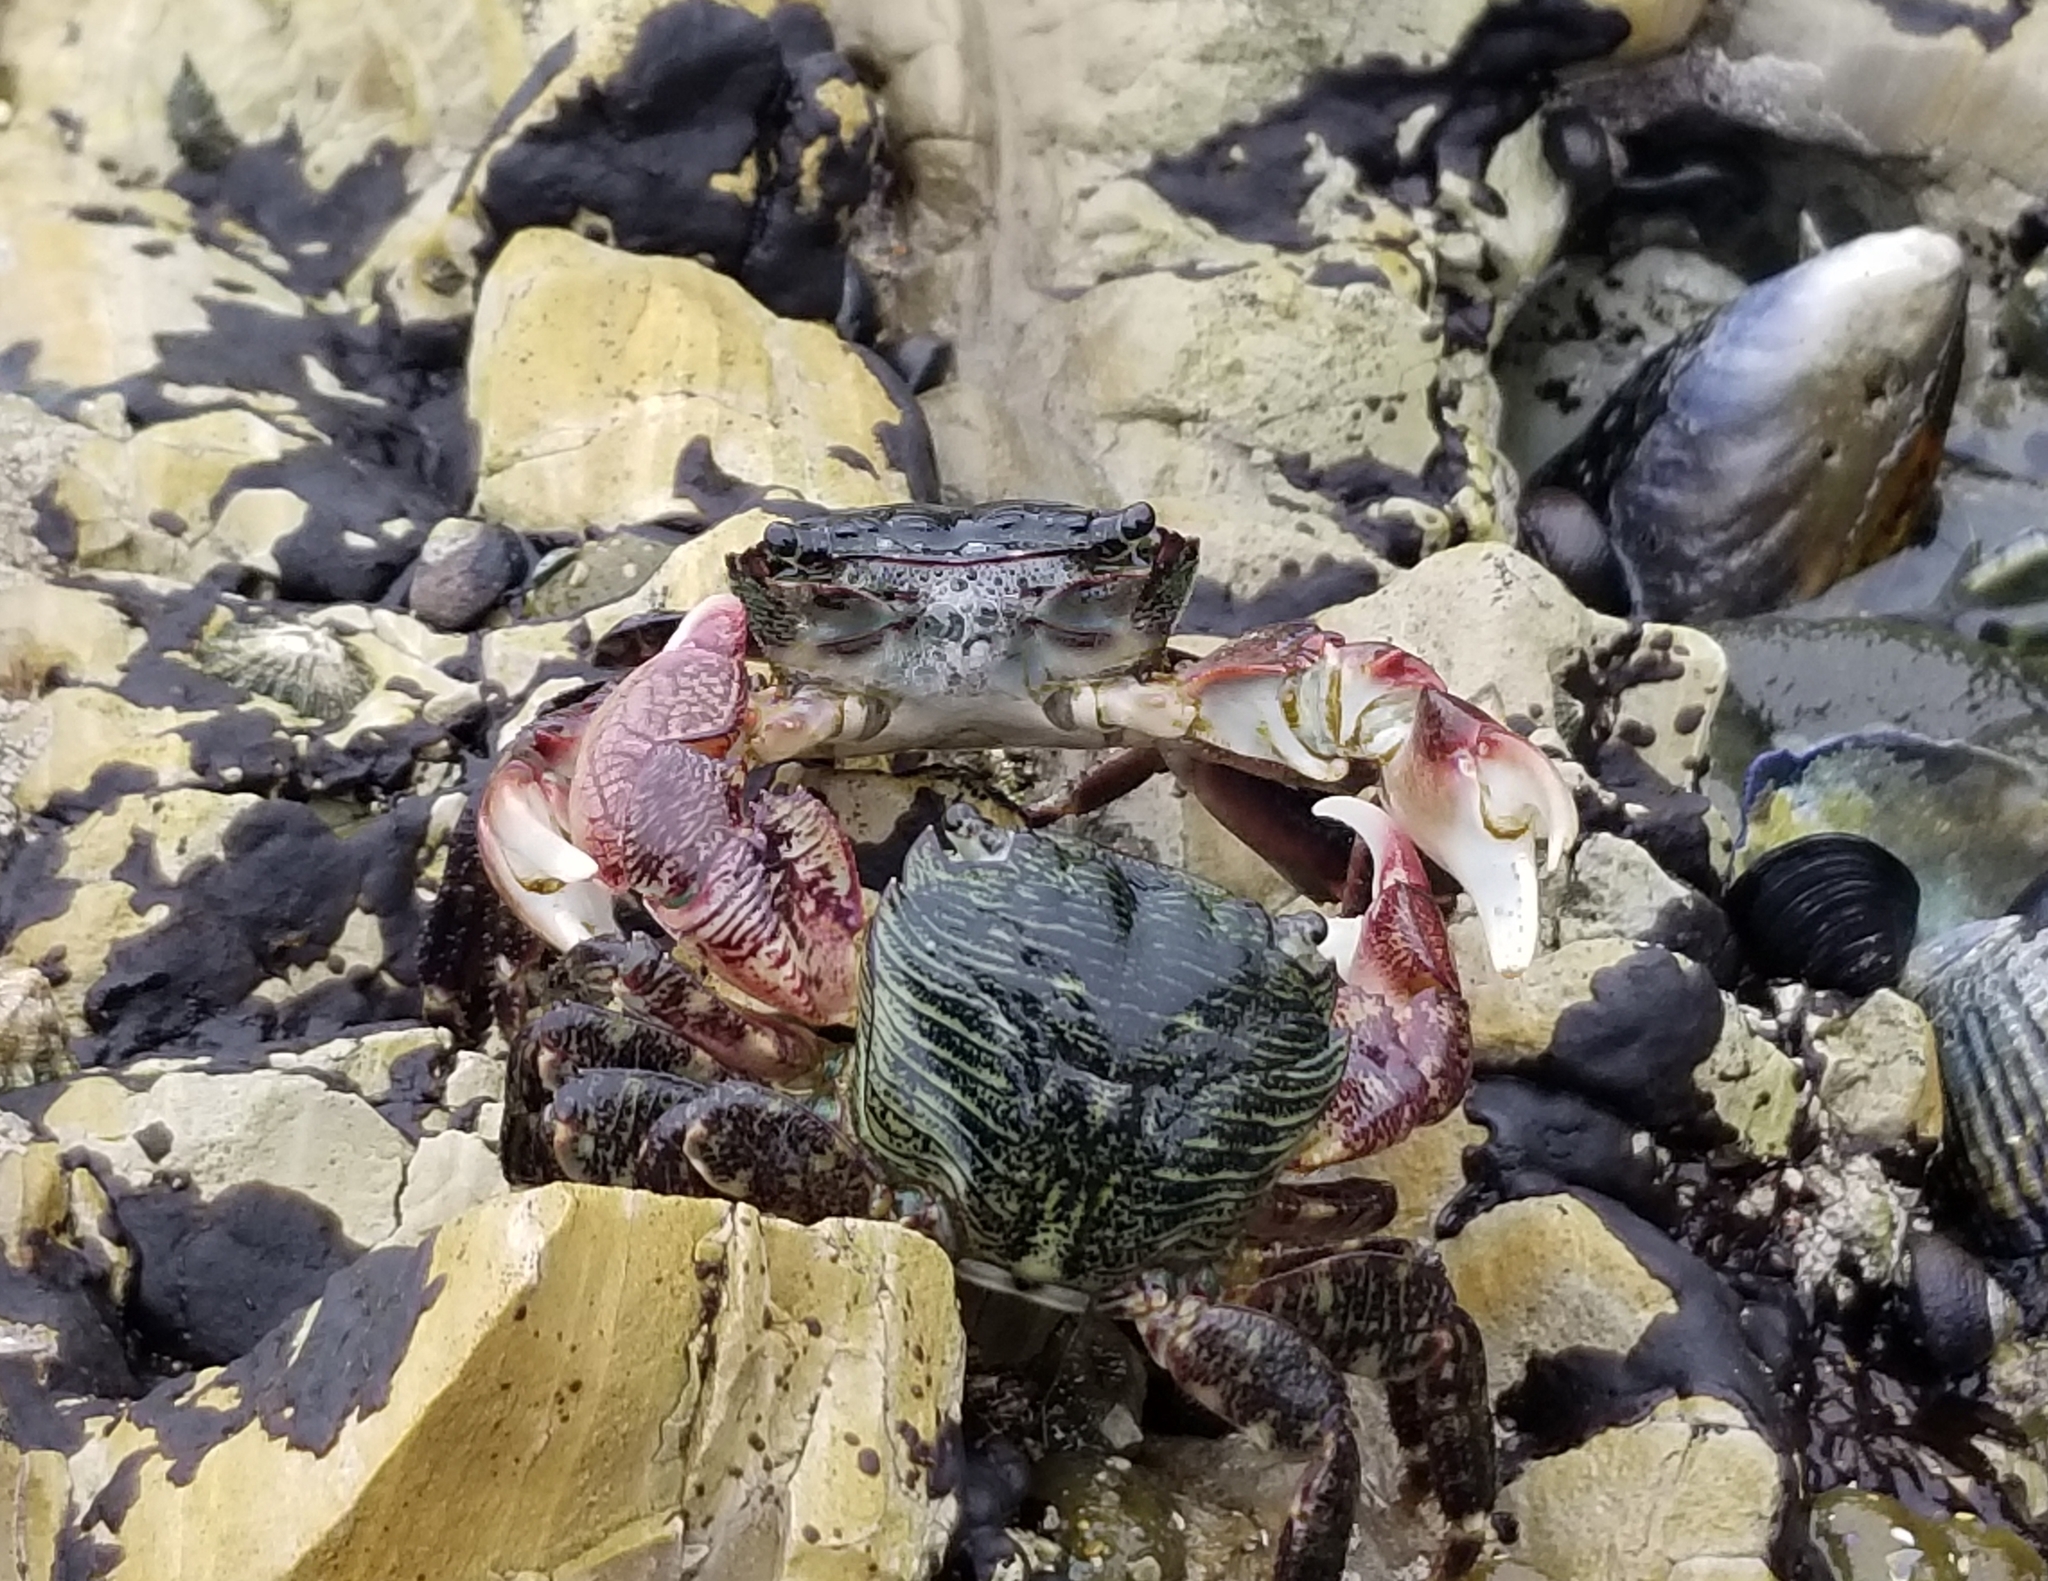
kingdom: Animalia
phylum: Arthropoda
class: Malacostraca
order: Decapoda
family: Grapsidae
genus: Pachygrapsus
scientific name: Pachygrapsus crassipes
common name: Striped shore crab
